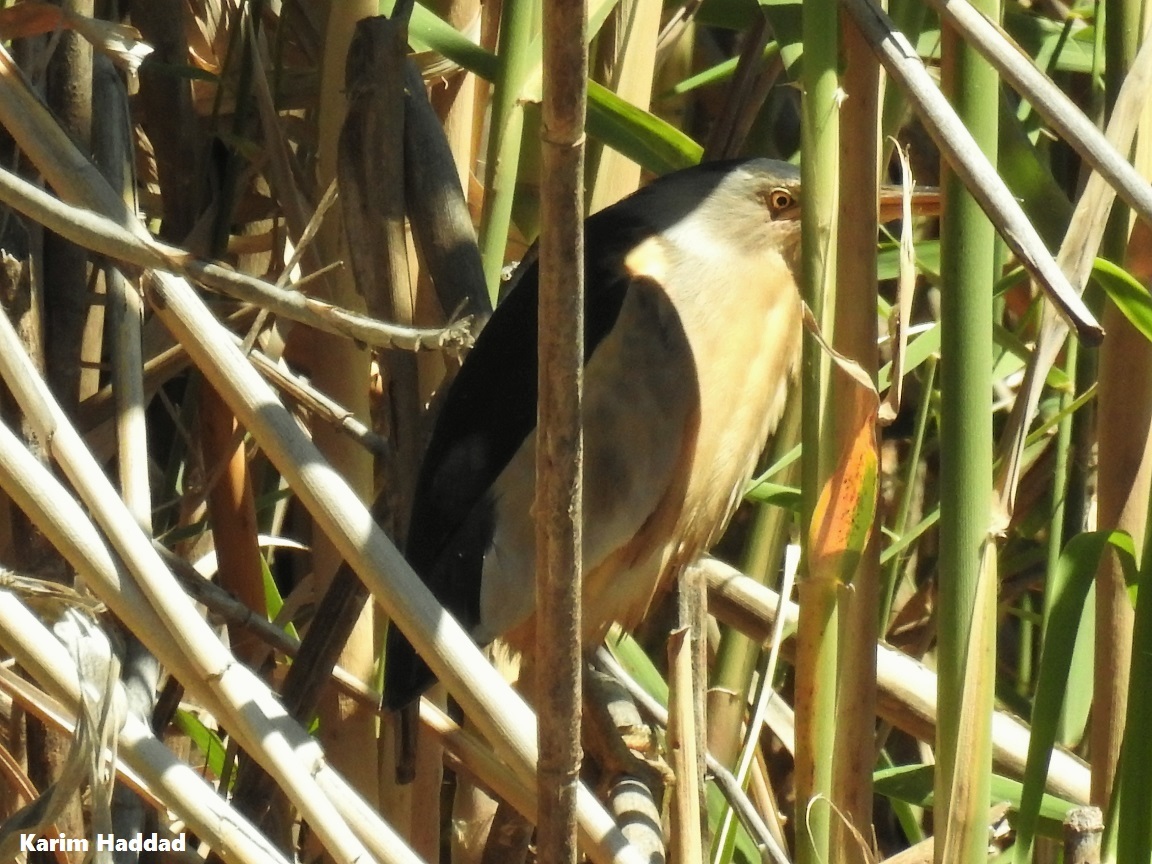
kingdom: Animalia
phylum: Chordata
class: Aves
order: Pelecaniformes
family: Ardeidae
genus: Ixobrychus
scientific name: Ixobrychus minutus
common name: Little bittern
